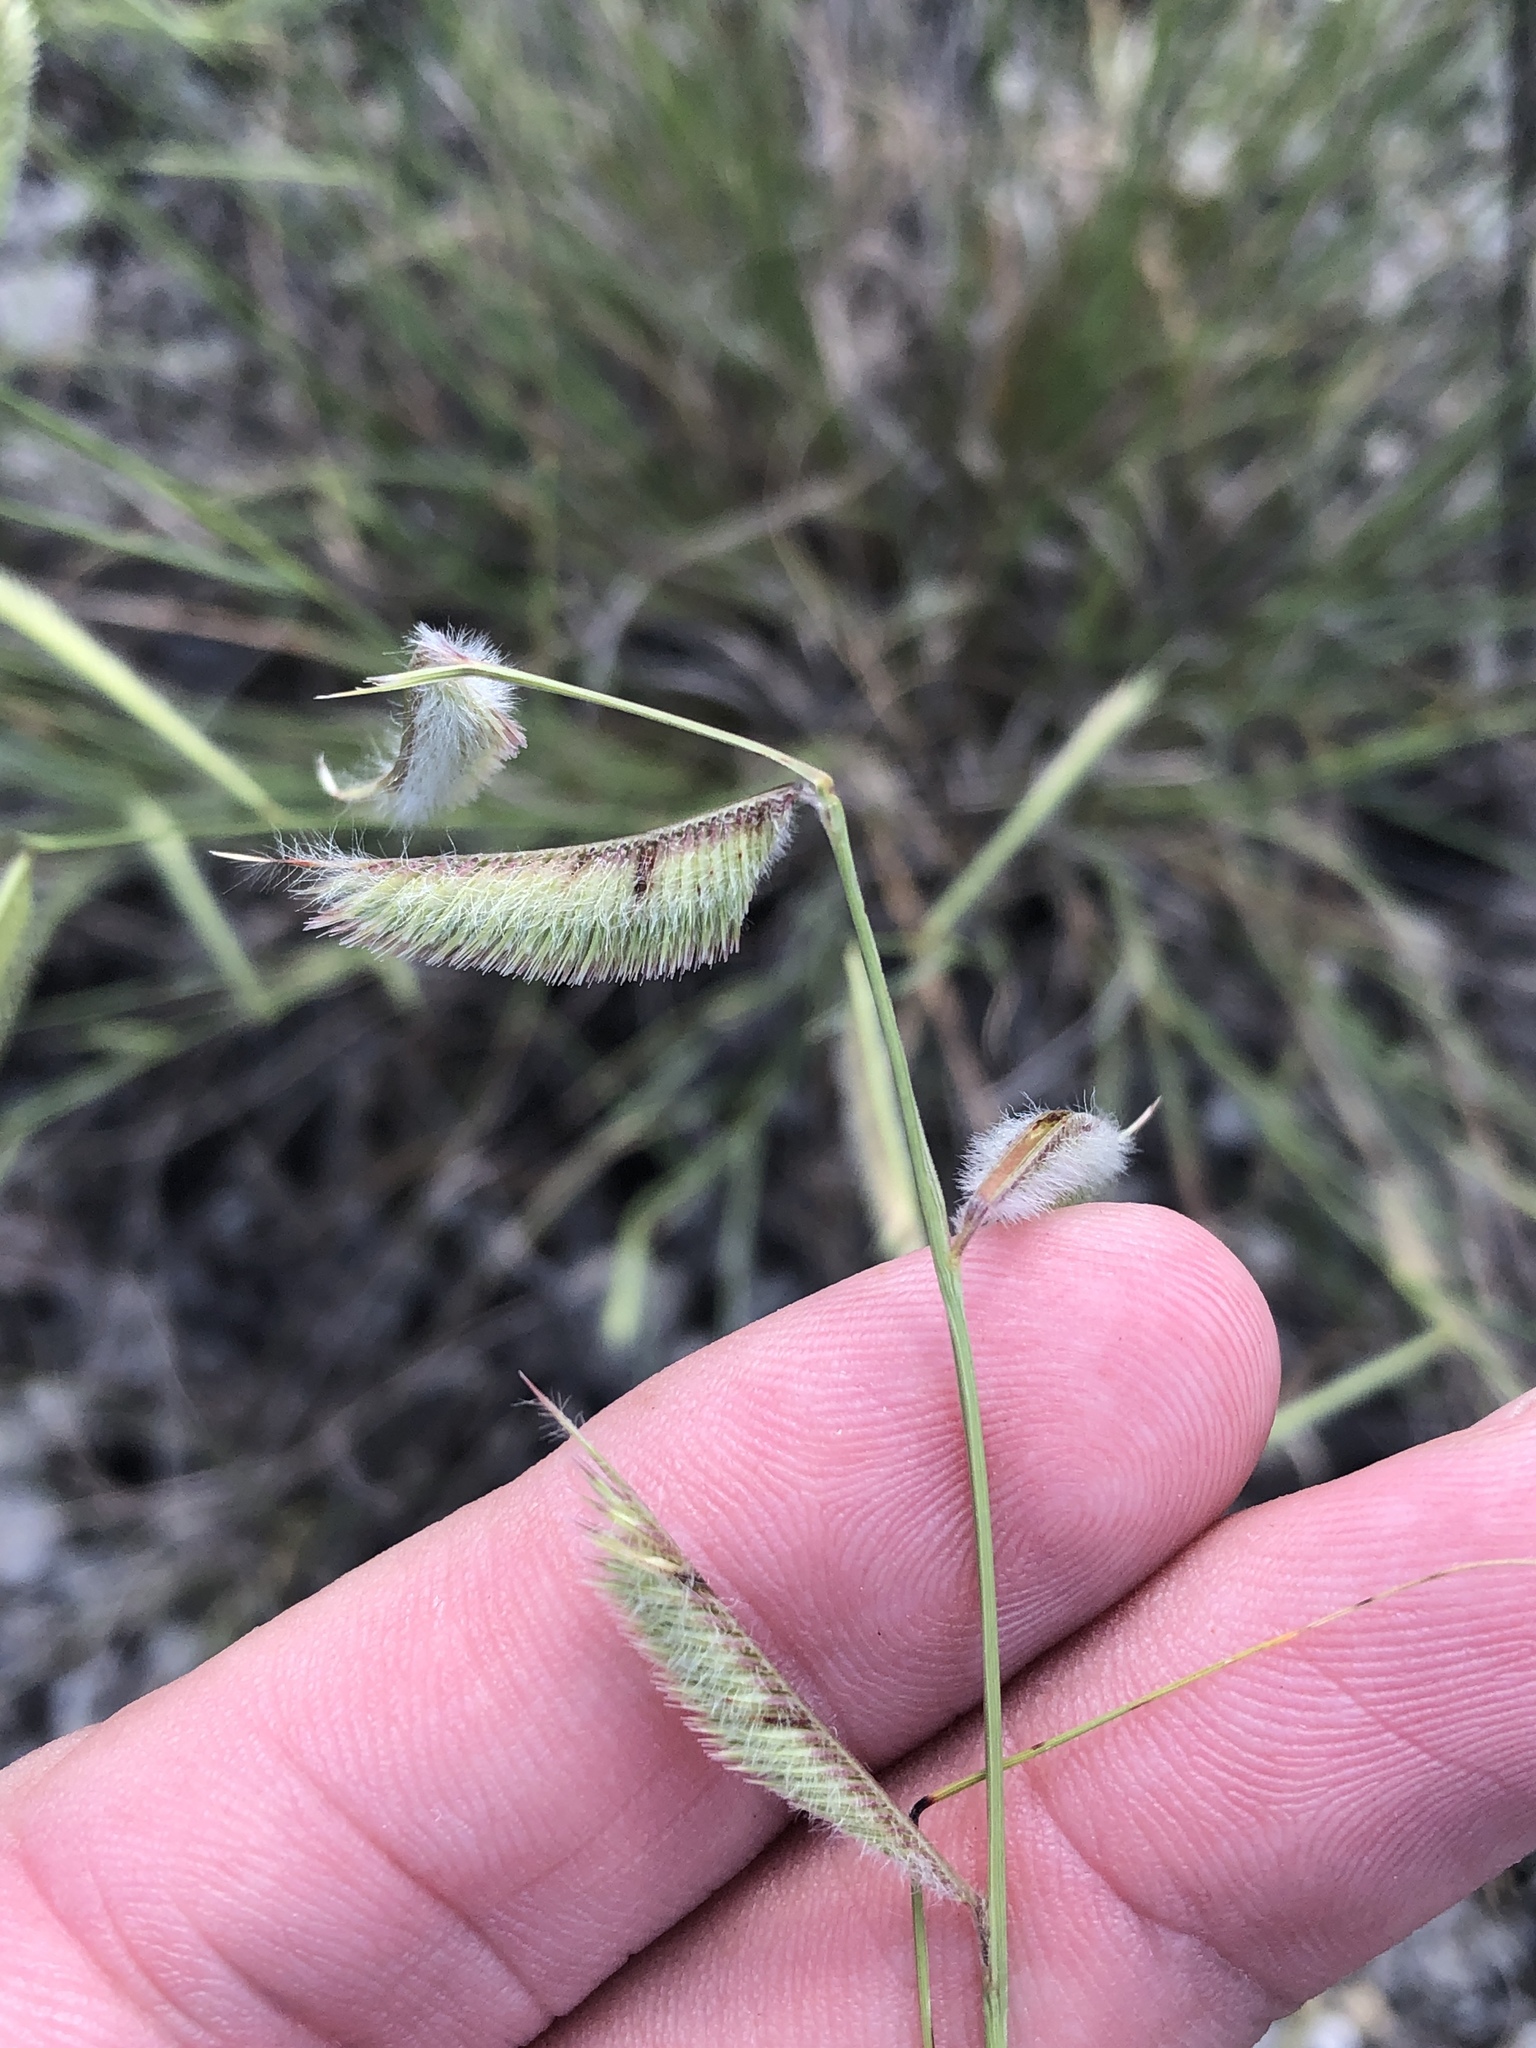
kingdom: Plantae
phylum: Tracheophyta
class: Liliopsida
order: Poales
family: Poaceae
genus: Bouteloua
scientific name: Bouteloua hirsuta
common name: Hairy grama
